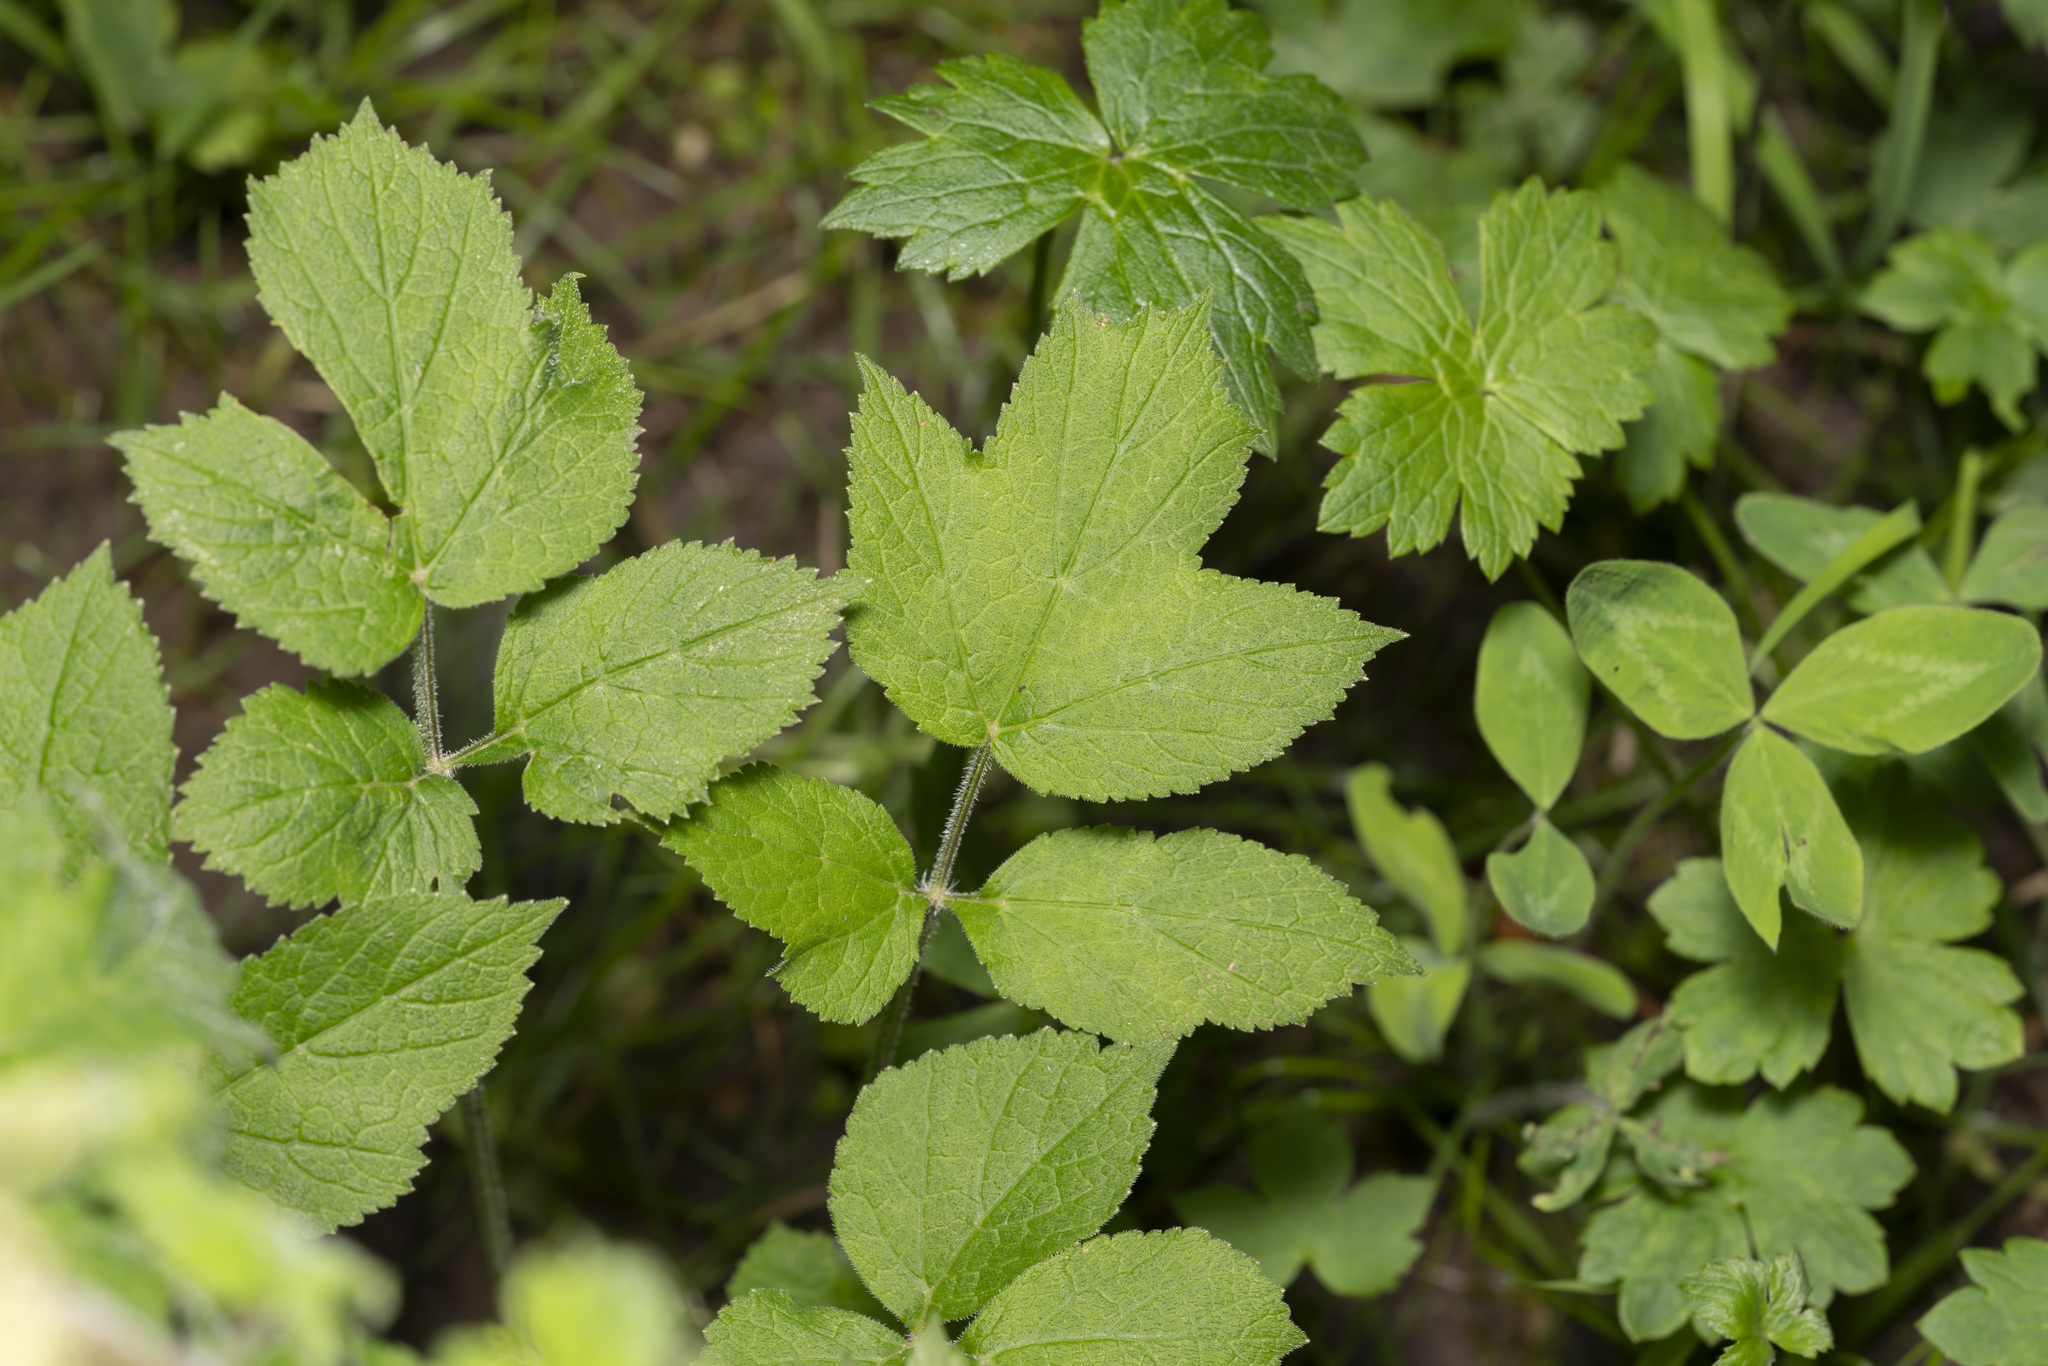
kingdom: Plantae
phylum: Tracheophyta
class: Magnoliopsida
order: Apiales
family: Apiaceae
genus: Heracleum
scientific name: Heracleum sphondylium
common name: Hogweed
